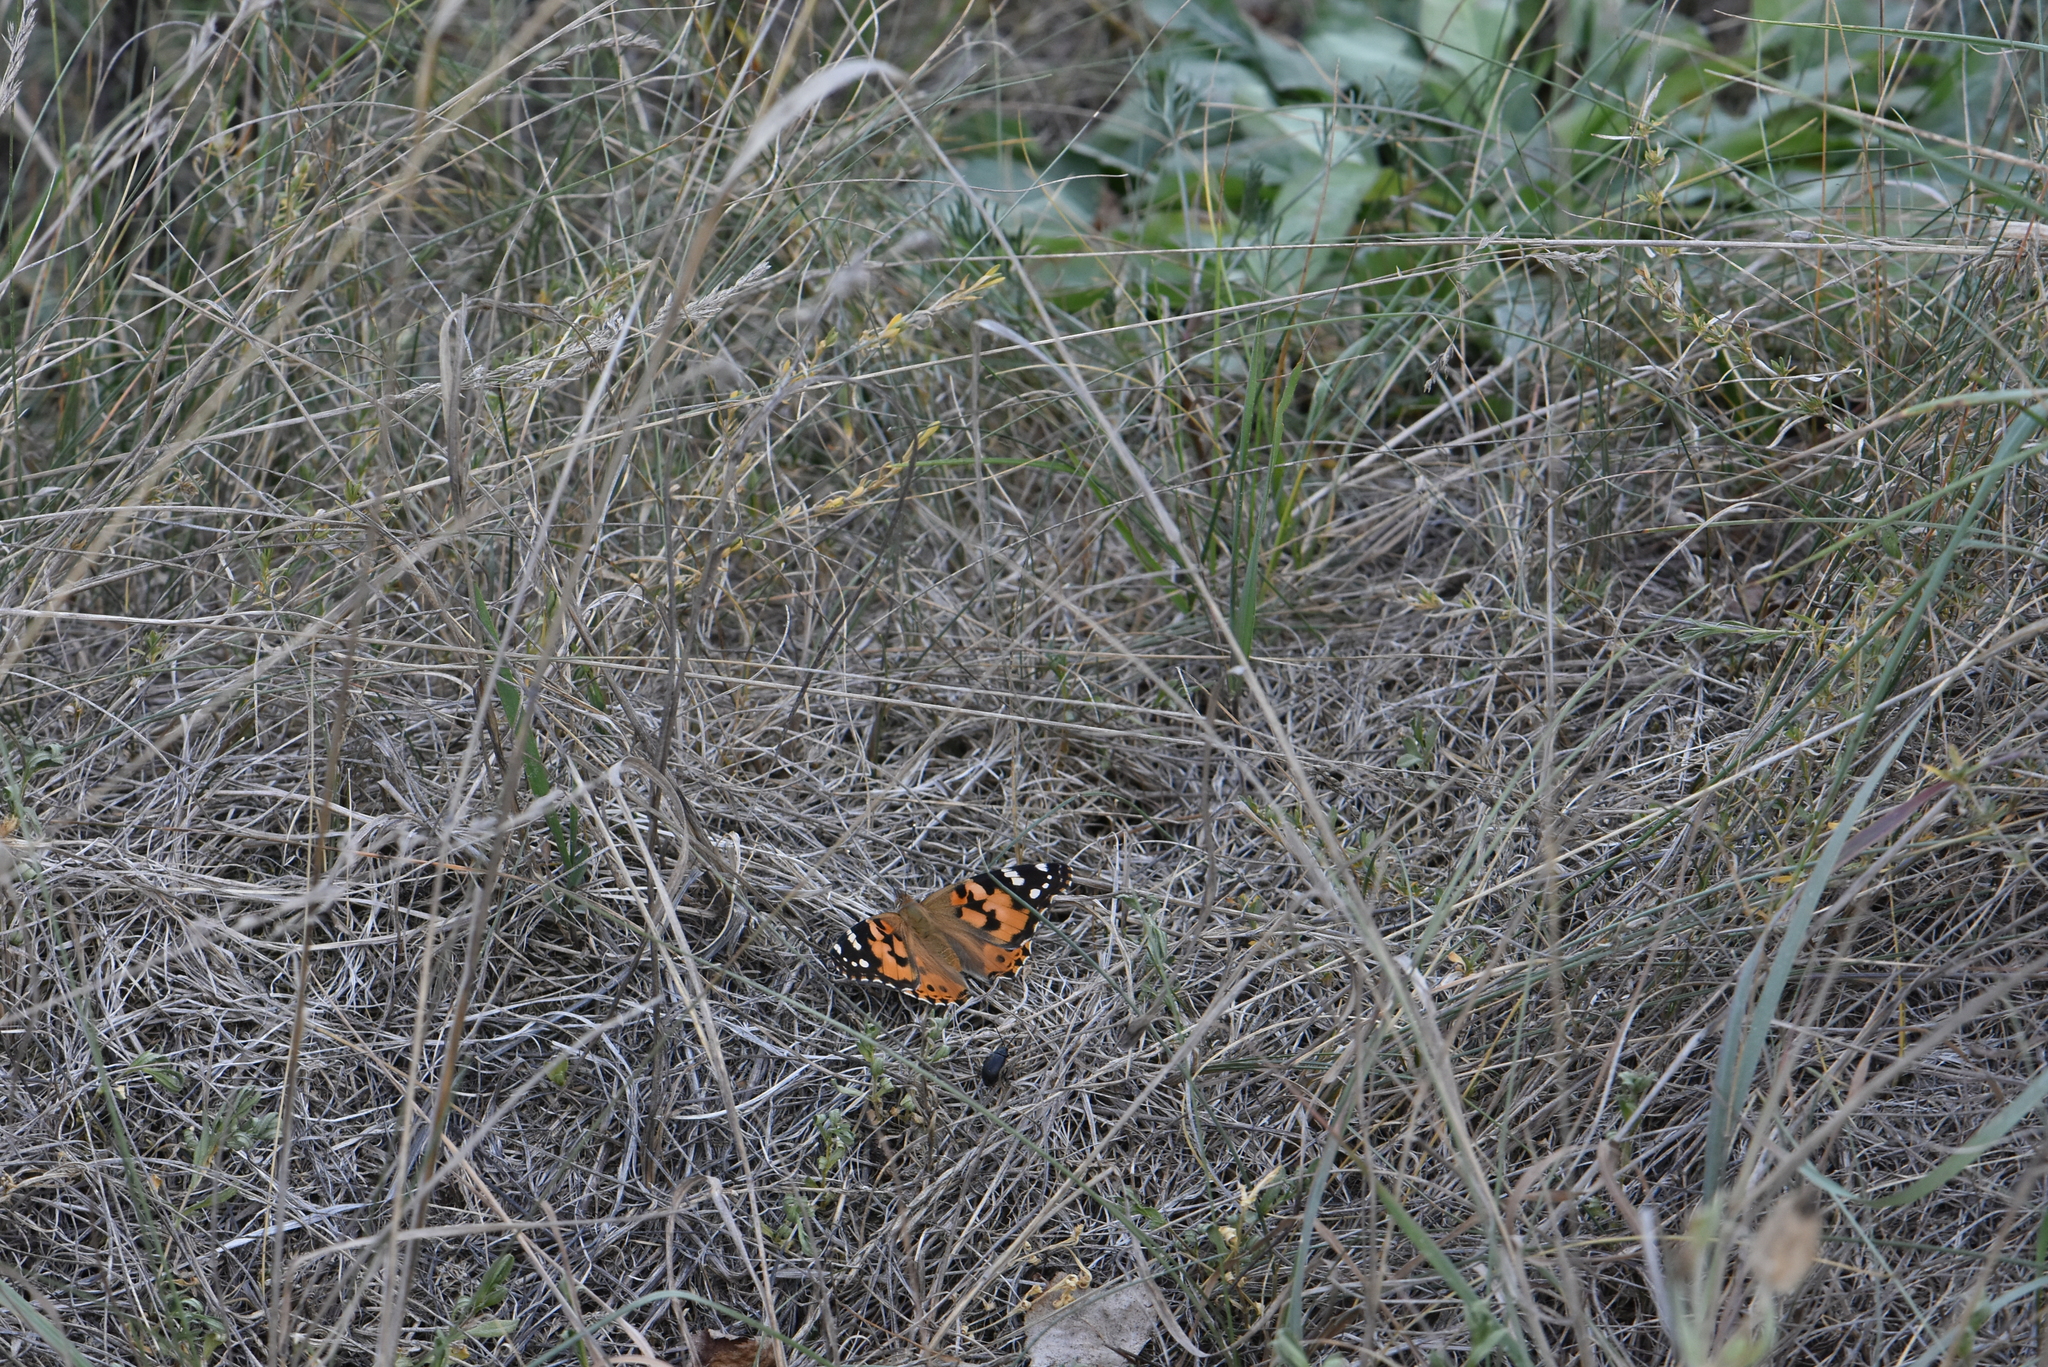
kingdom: Animalia
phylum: Arthropoda
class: Insecta
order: Lepidoptera
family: Nymphalidae
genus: Vanessa
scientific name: Vanessa cardui
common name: Painted lady
